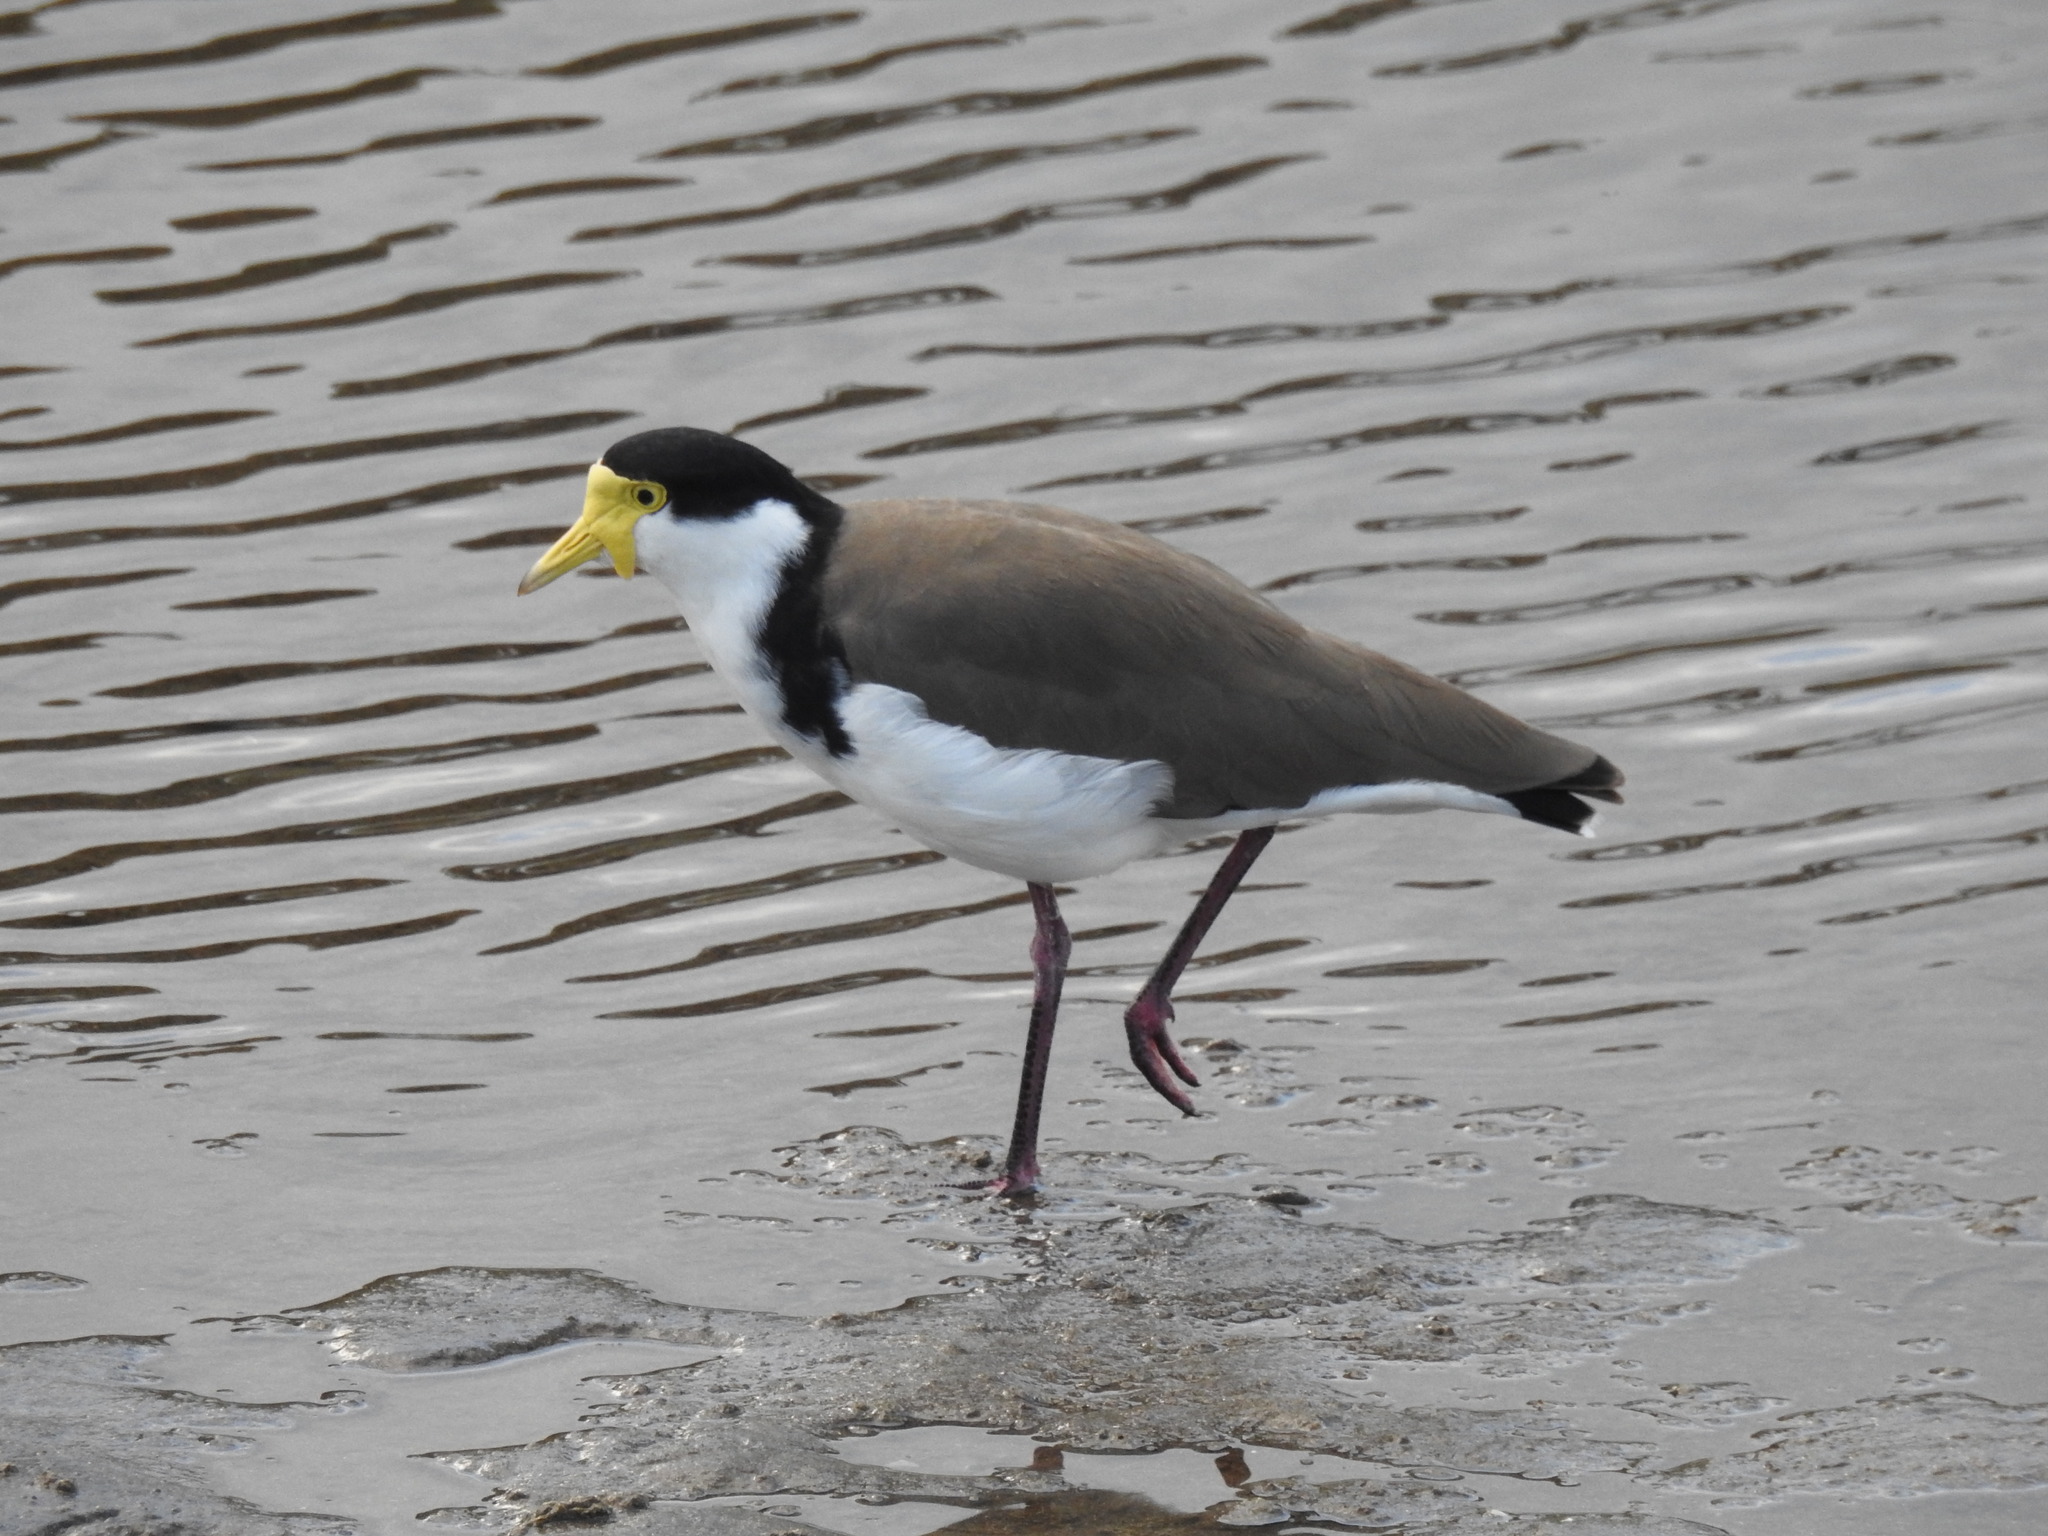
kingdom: Animalia
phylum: Chordata
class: Aves
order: Charadriiformes
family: Charadriidae
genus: Vanellus
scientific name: Vanellus miles
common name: Masked lapwing
